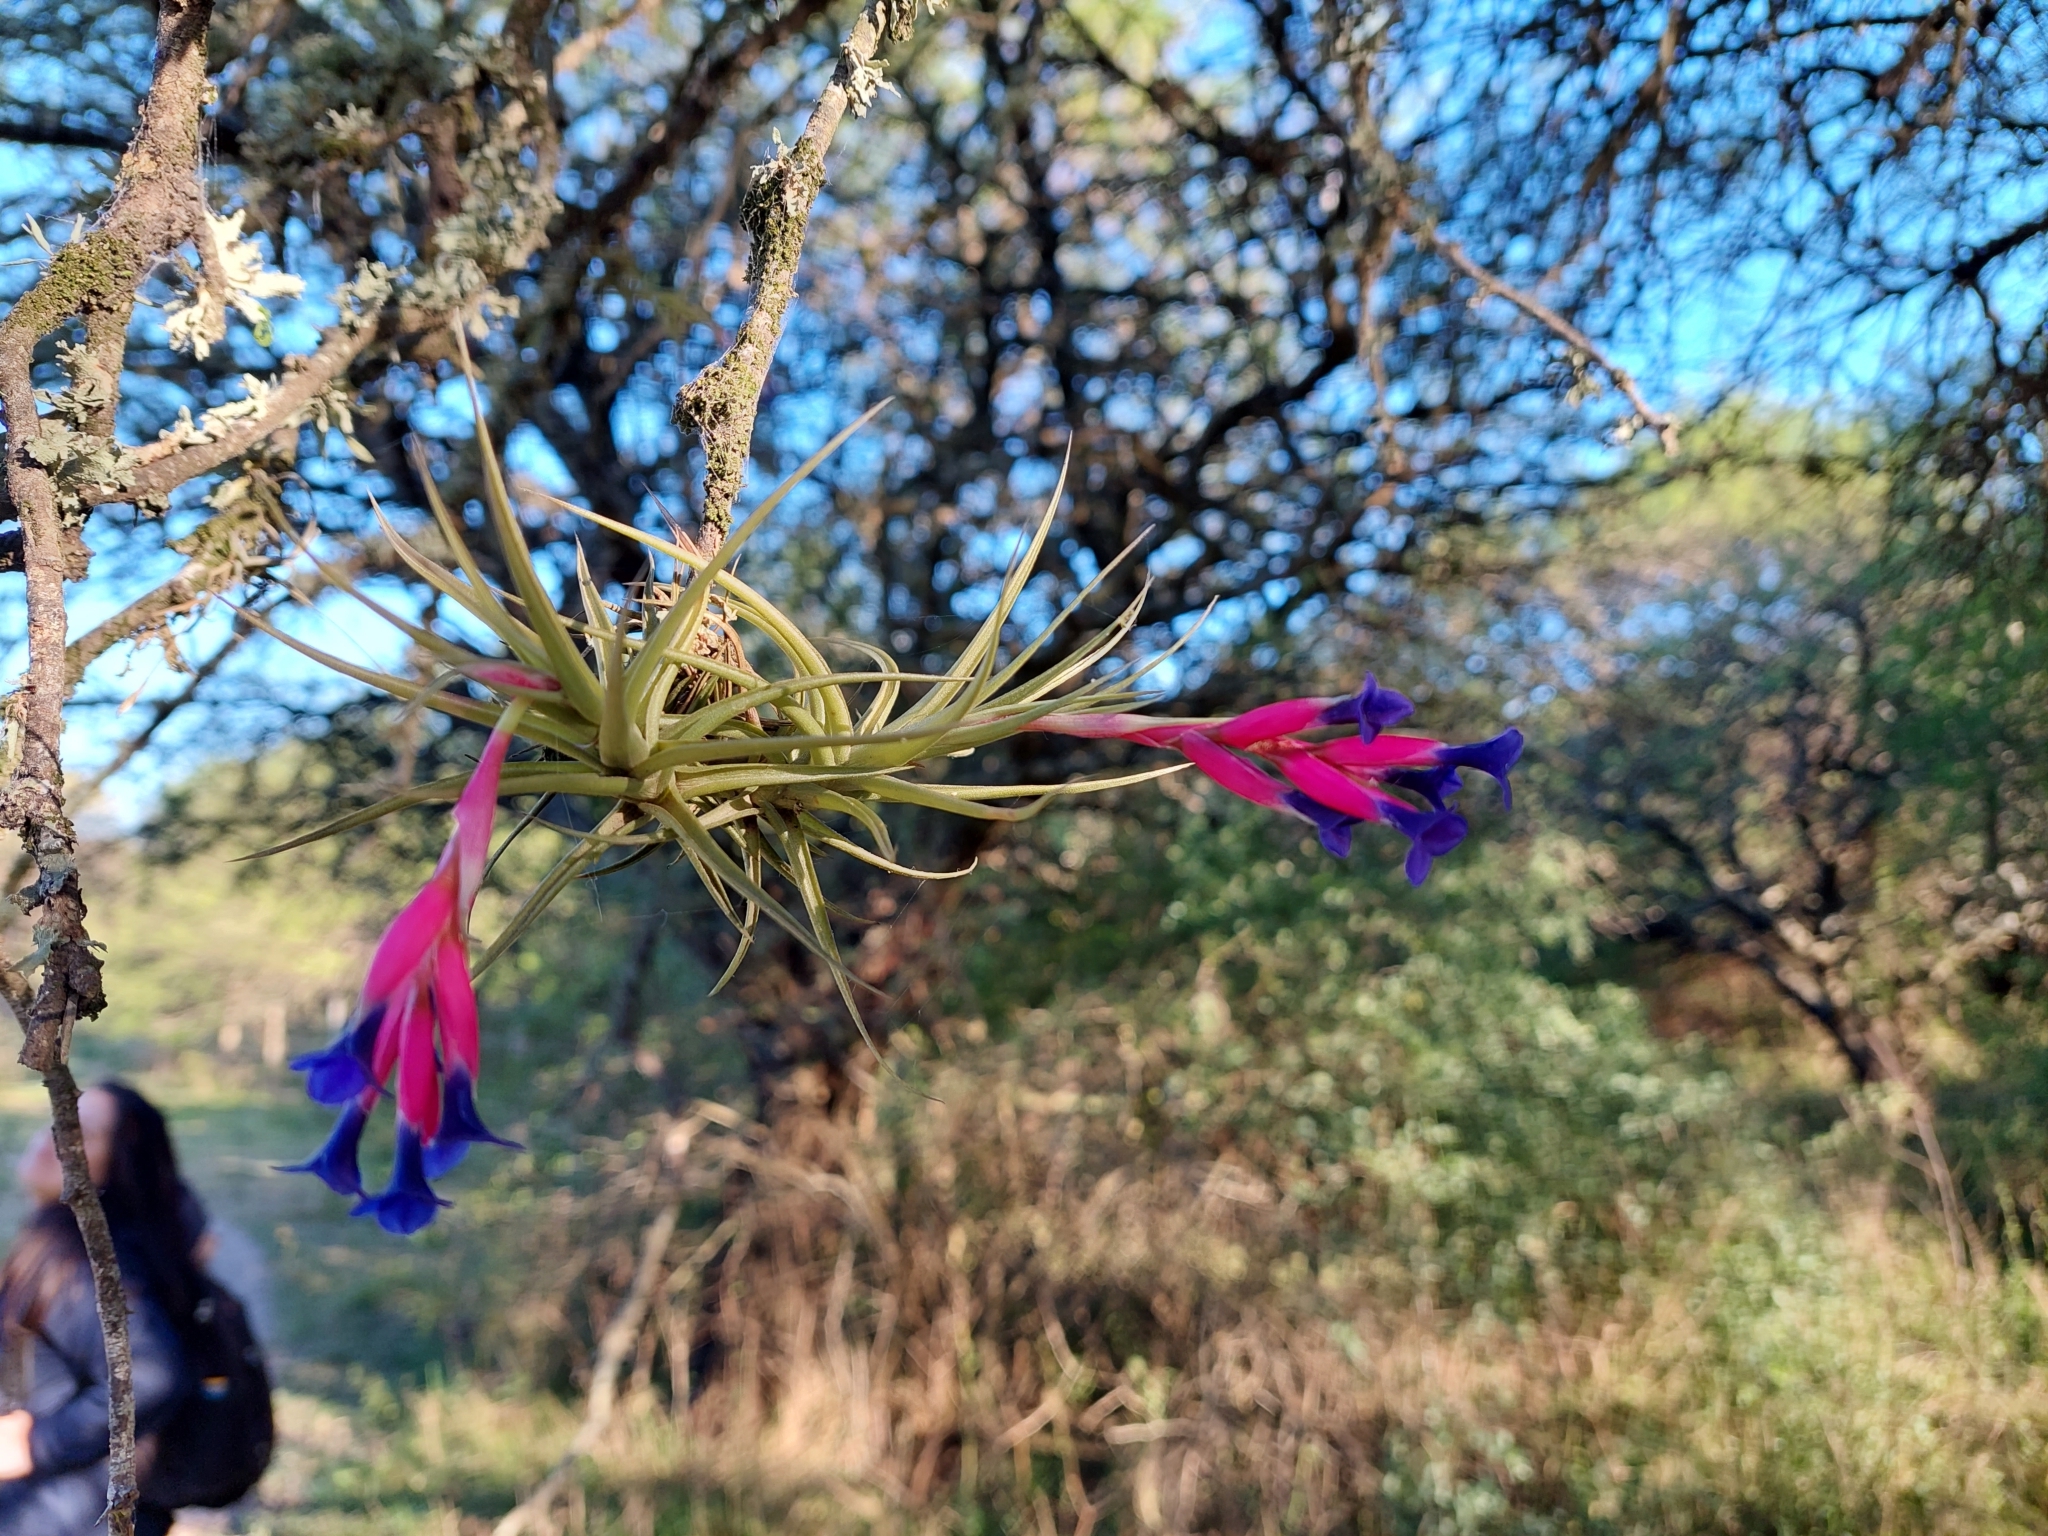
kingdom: Plantae
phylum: Tracheophyta
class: Liliopsida
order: Poales
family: Bromeliaceae
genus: Tillandsia
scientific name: Tillandsia aeranthos
